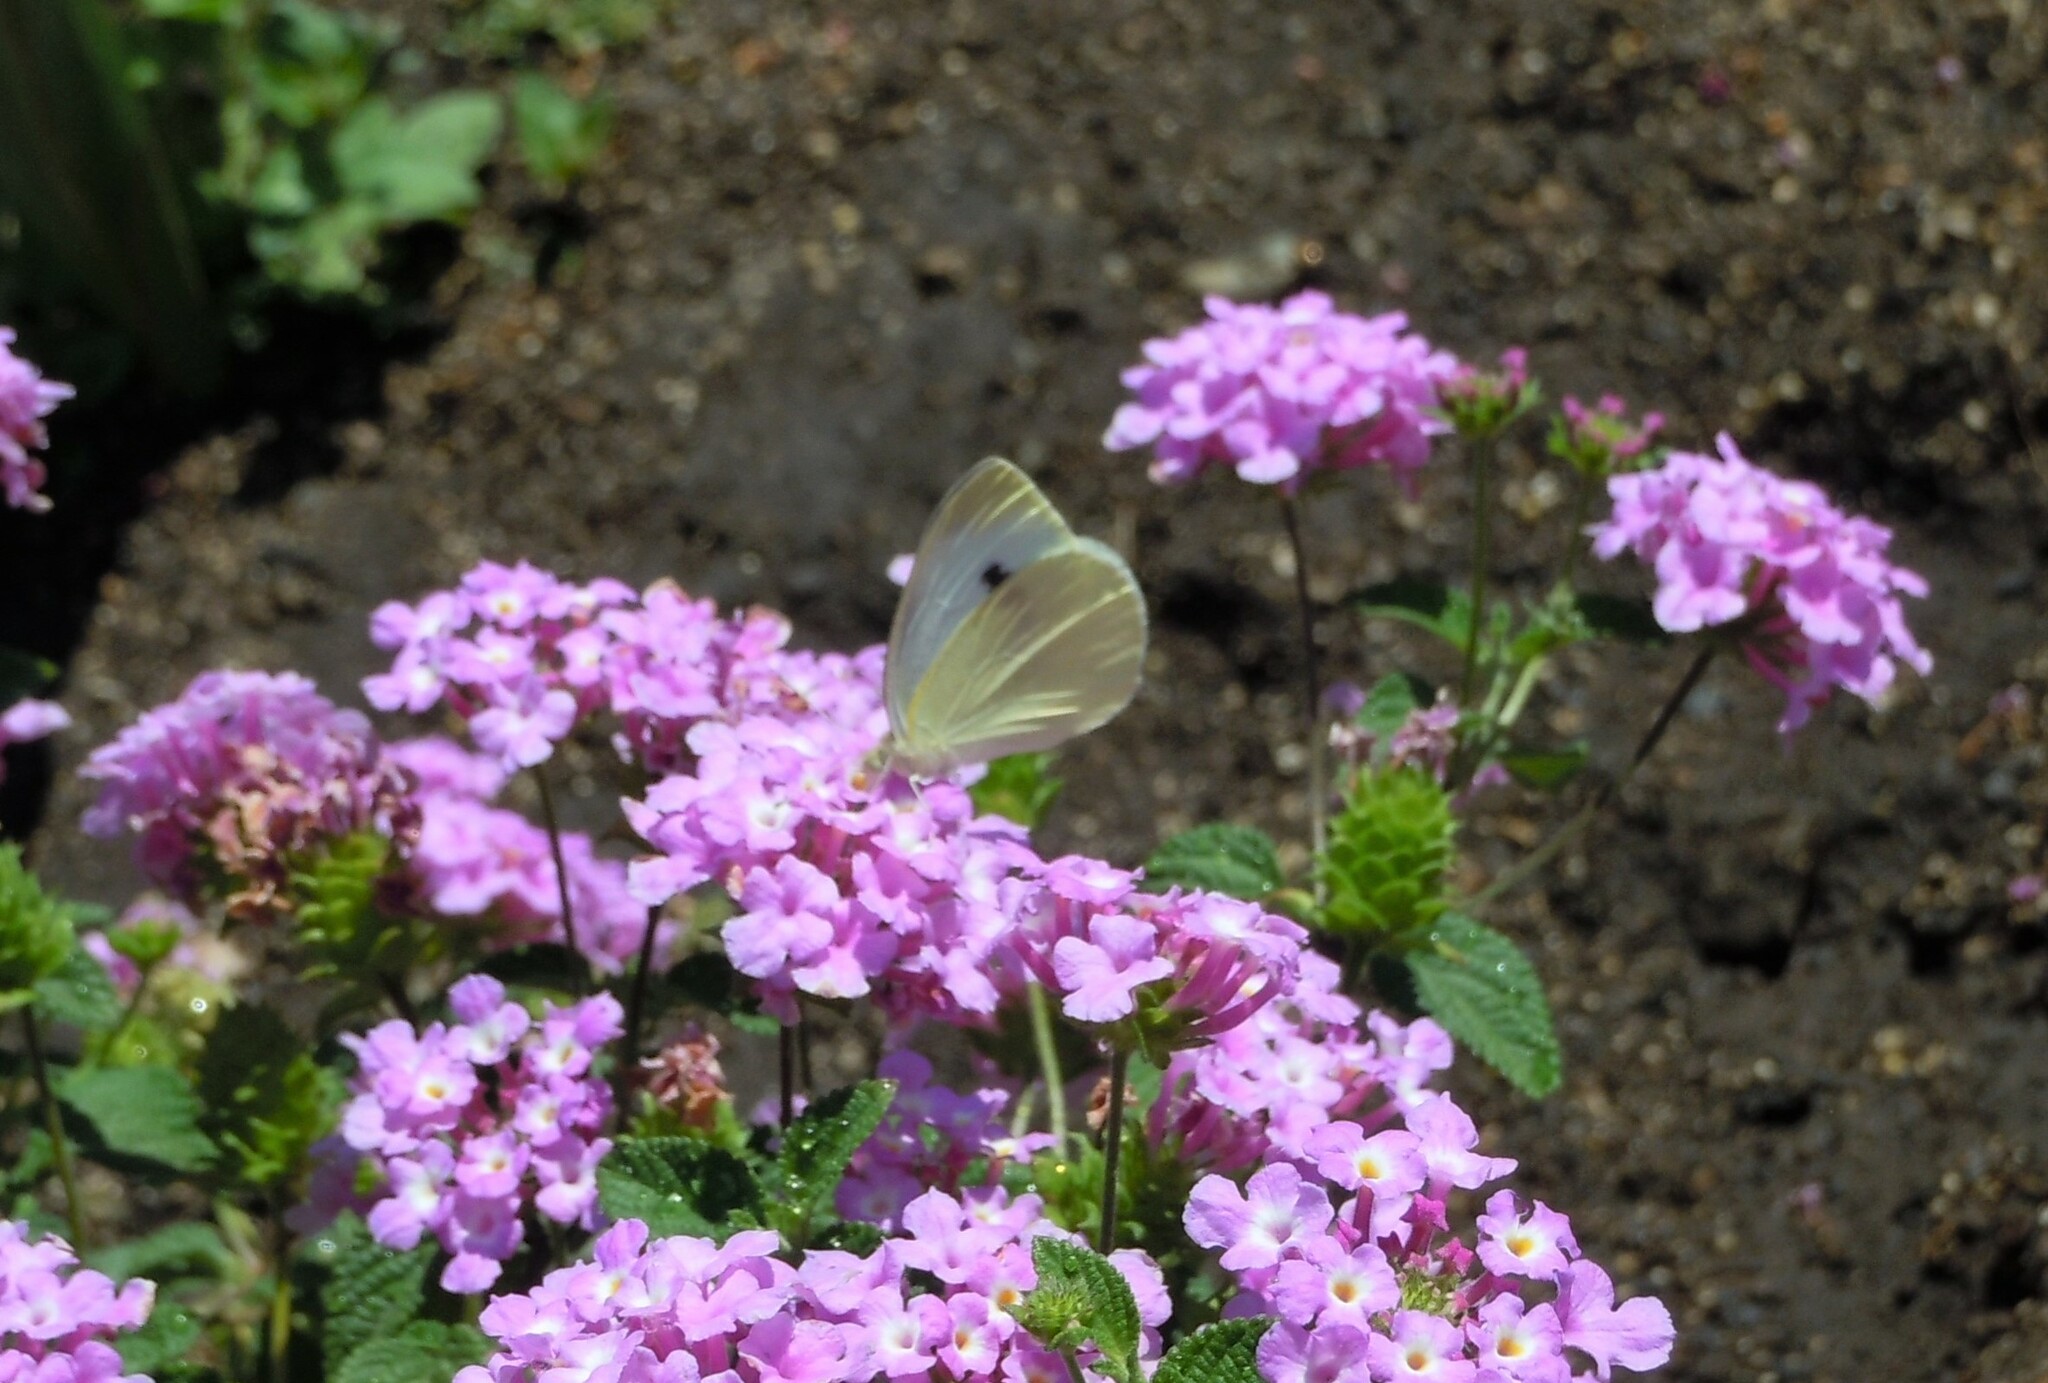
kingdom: Animalia
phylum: Arthropoda
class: Insecta
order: Lepidoptera
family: Pieridae
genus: Pieris
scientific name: Pieris rapae
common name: Small white
